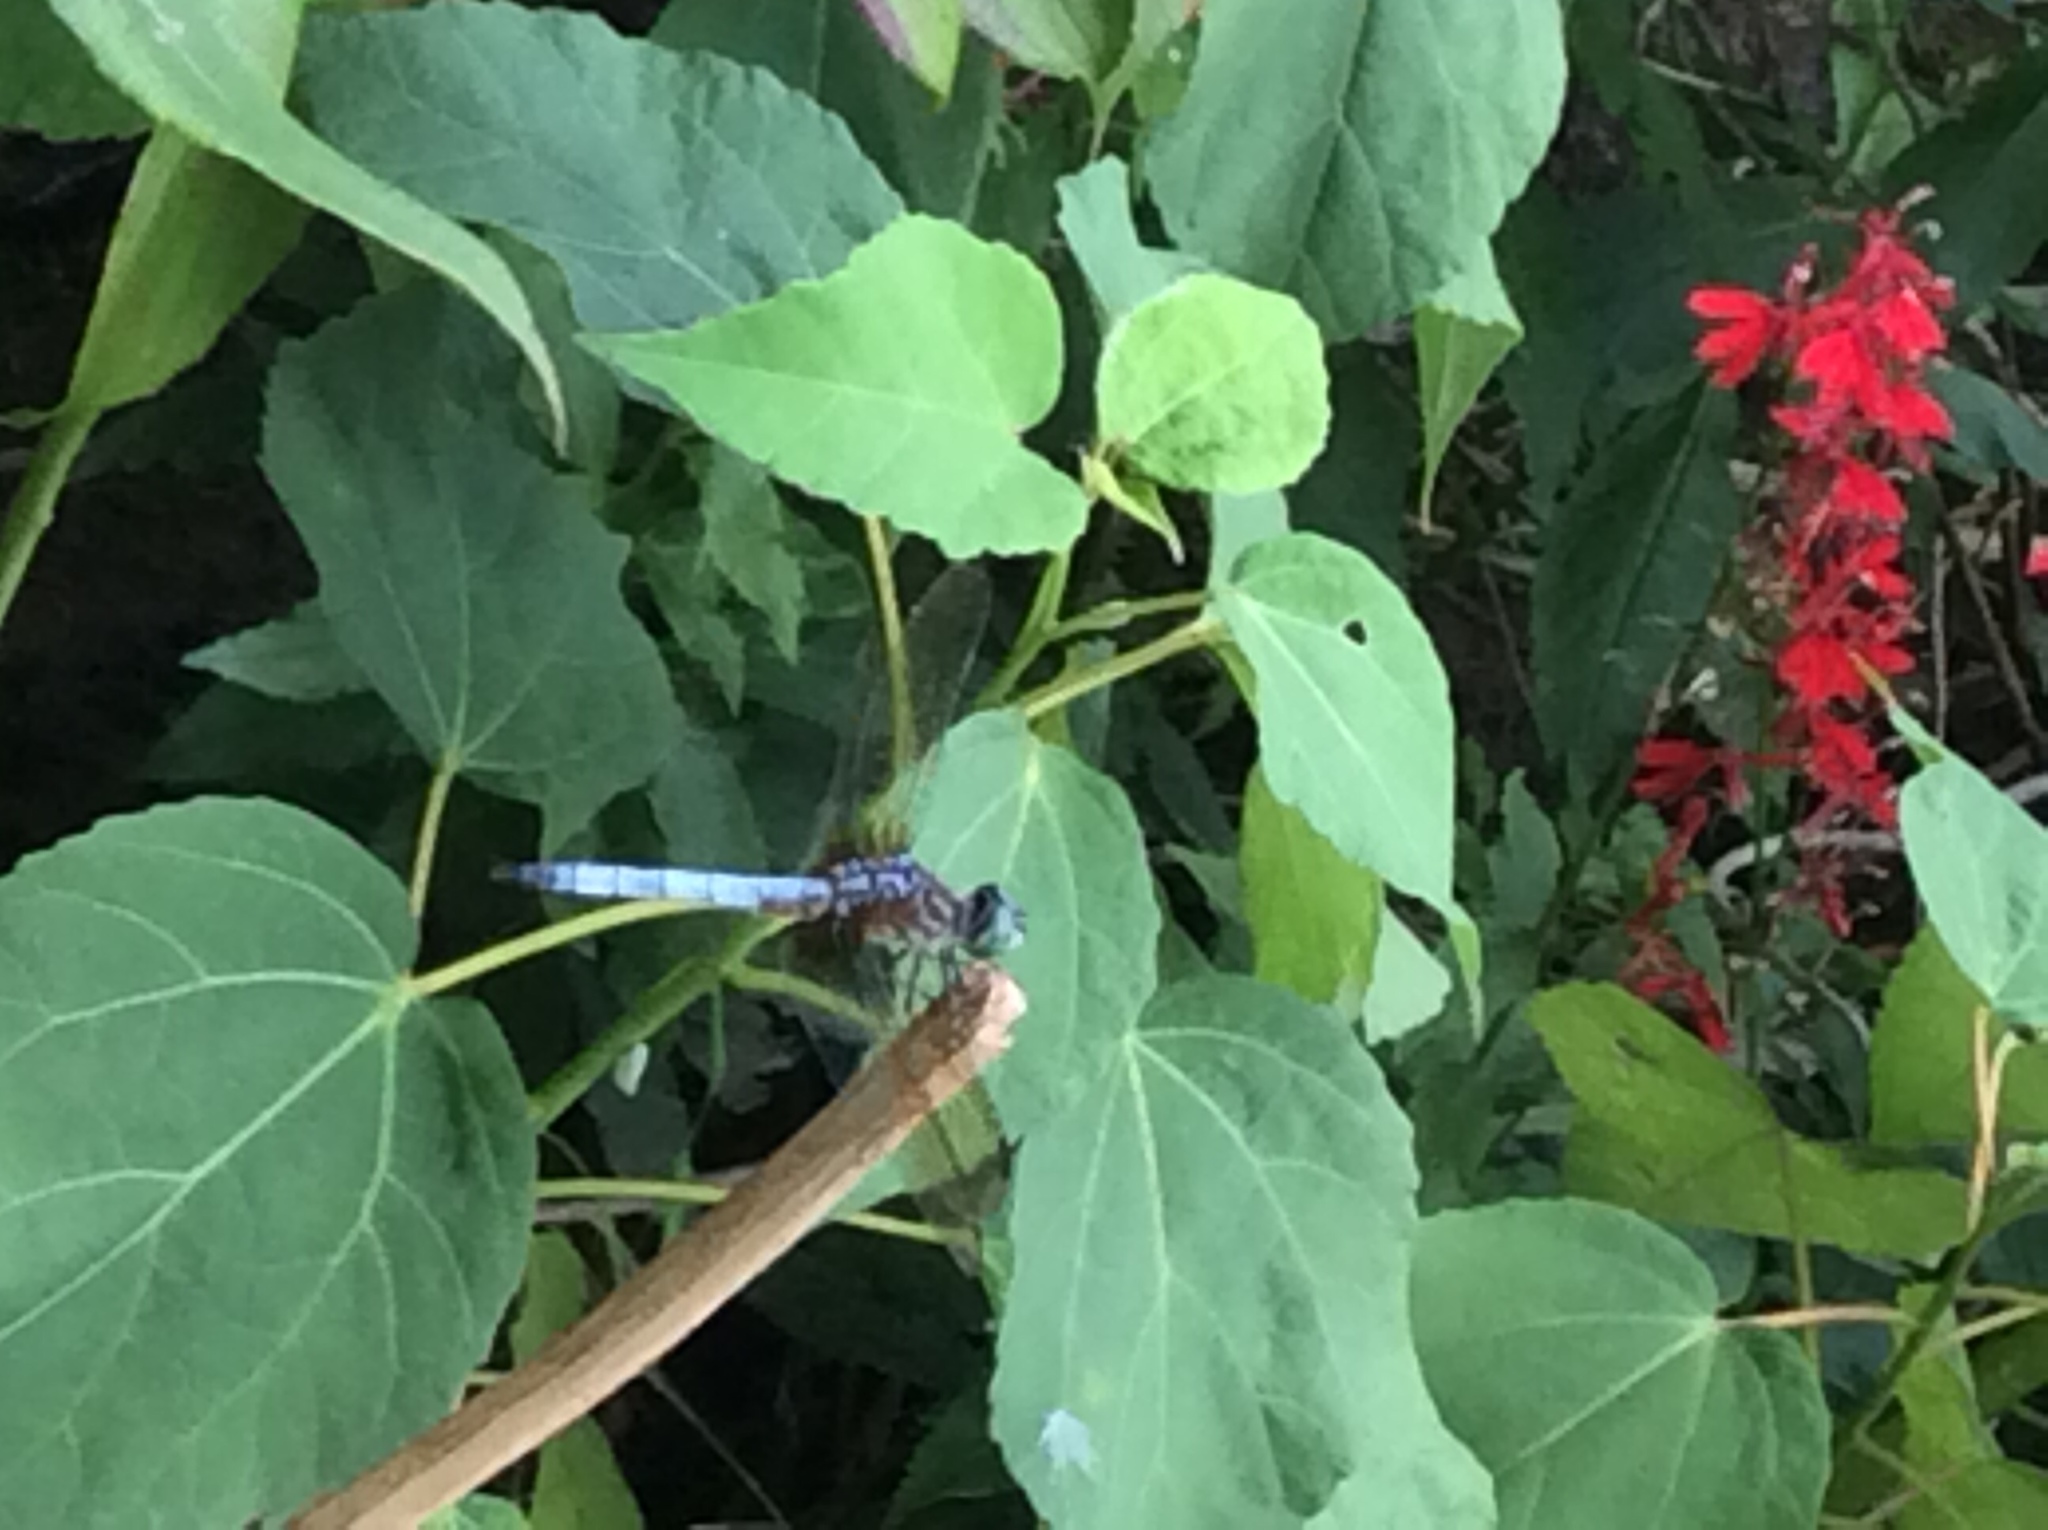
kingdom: Animalia
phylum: Arthropoda
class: Insecta
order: Odonata
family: Libellulidae
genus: Pachydiplax
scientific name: Pachydiplax longipennis
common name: Blue dasher
